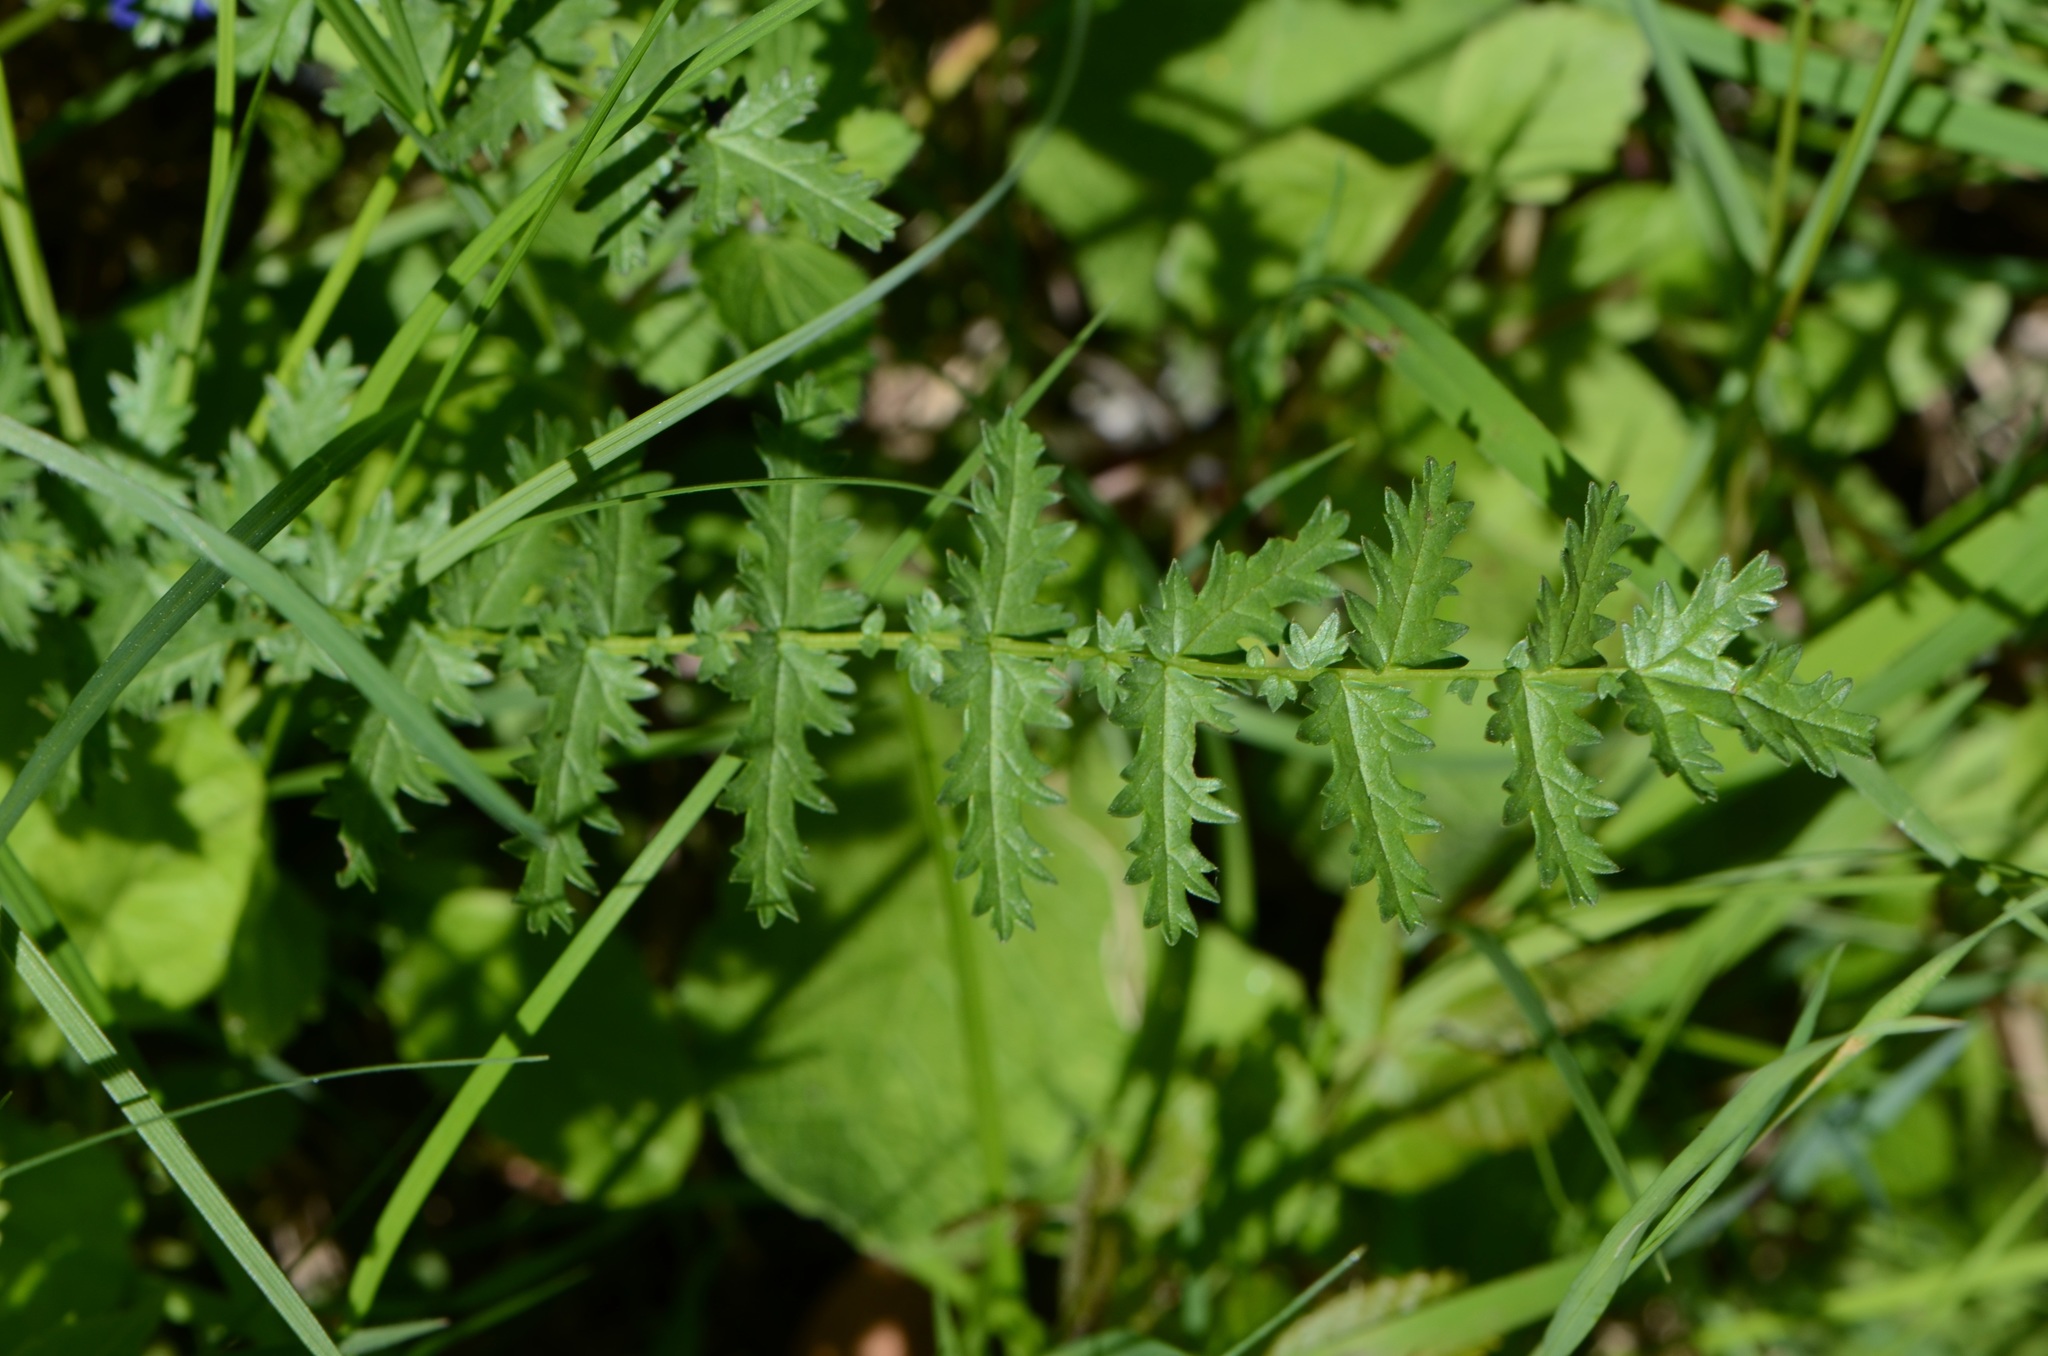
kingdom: Plantae
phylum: Tracheophyta
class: Magnoliopsida
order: Rosales
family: Rosaceae
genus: Filipendula
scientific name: Filipendula vulgaris
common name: Dropwort
